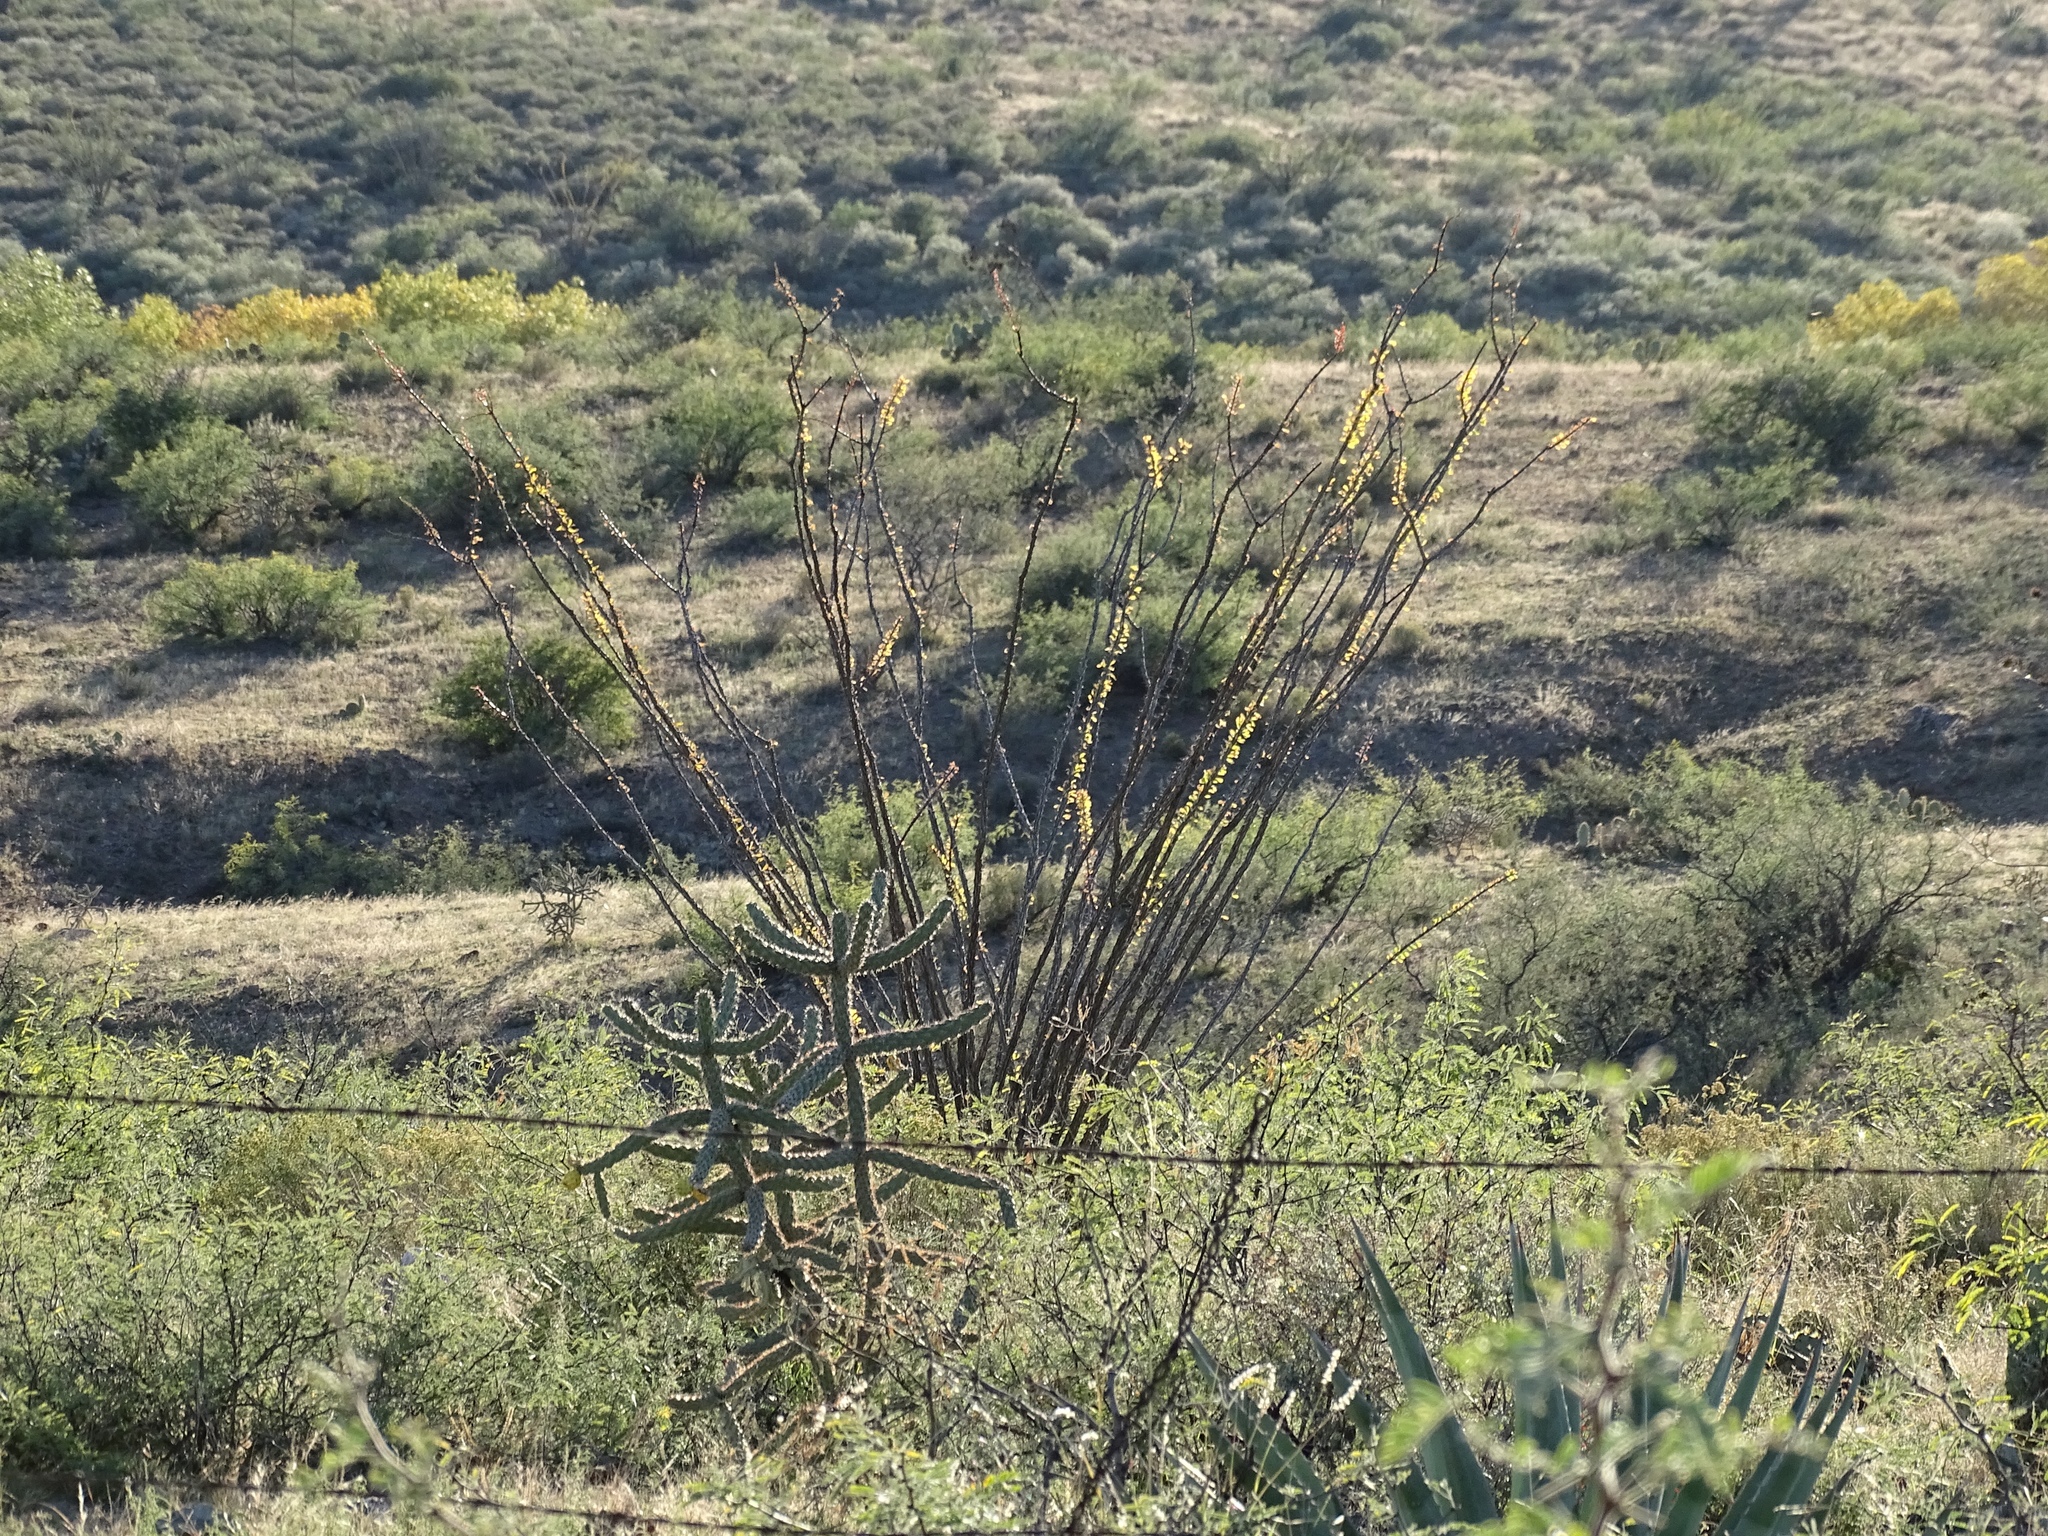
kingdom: Plantae
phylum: Tracheophyta
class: Magnoliopsida
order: Ericales
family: Fouquieriaceae
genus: Fouquieria
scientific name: Fouquieria splendens
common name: Vine-cactus
